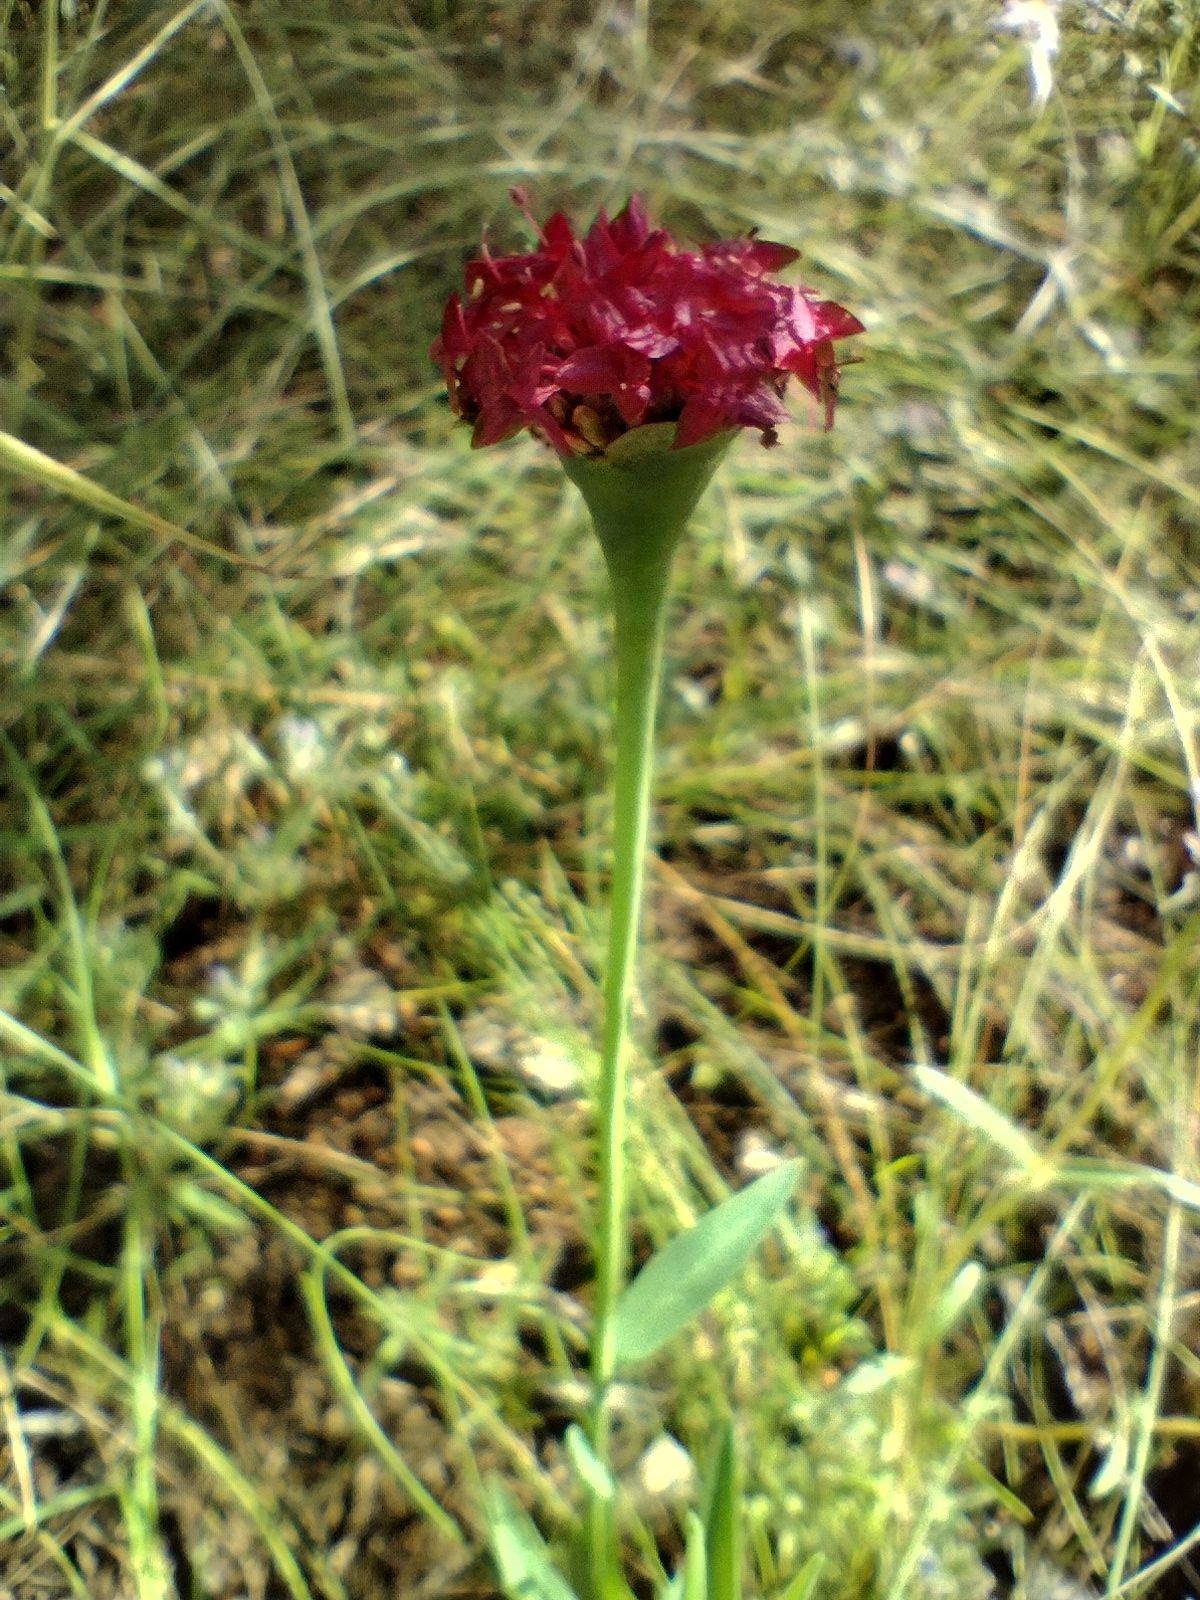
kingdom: Plantae
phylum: Tracheophyta
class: Magnoliopsida
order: Malvales
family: Thymelaeaceae
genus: Pimelea
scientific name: Pimelea punicea
